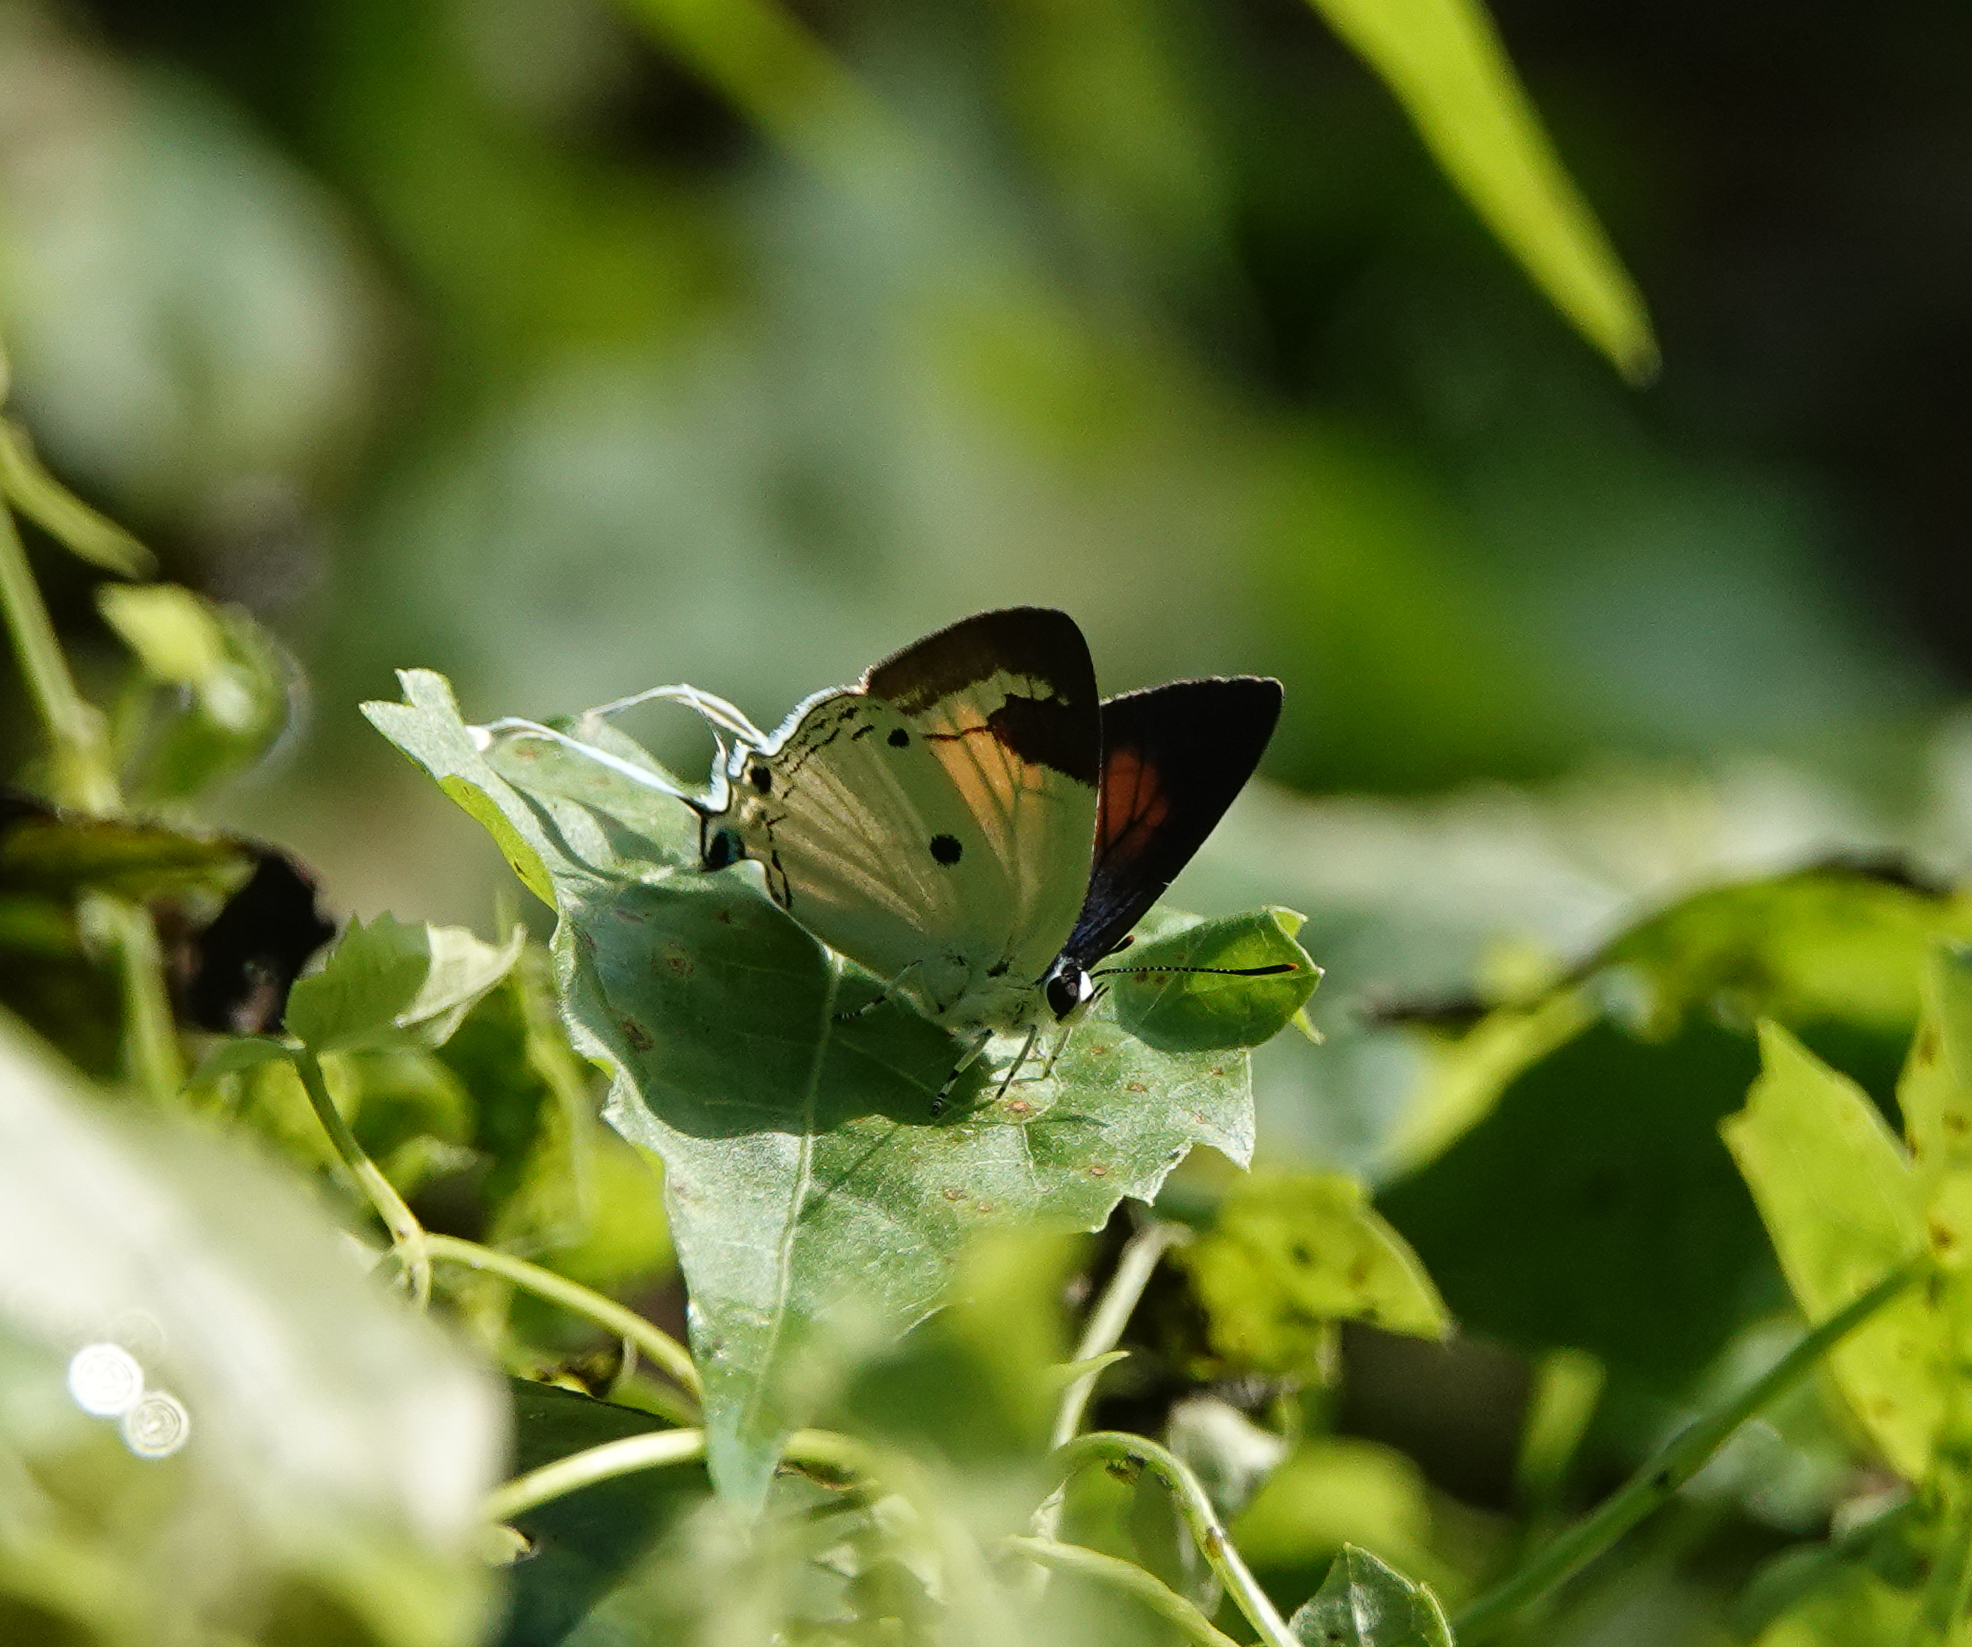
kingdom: Animalia
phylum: Arthropoda
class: Insecta
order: Lepidoptera
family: Lycaenidae
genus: Suasa
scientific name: Suasa lisides
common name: Red imperial
